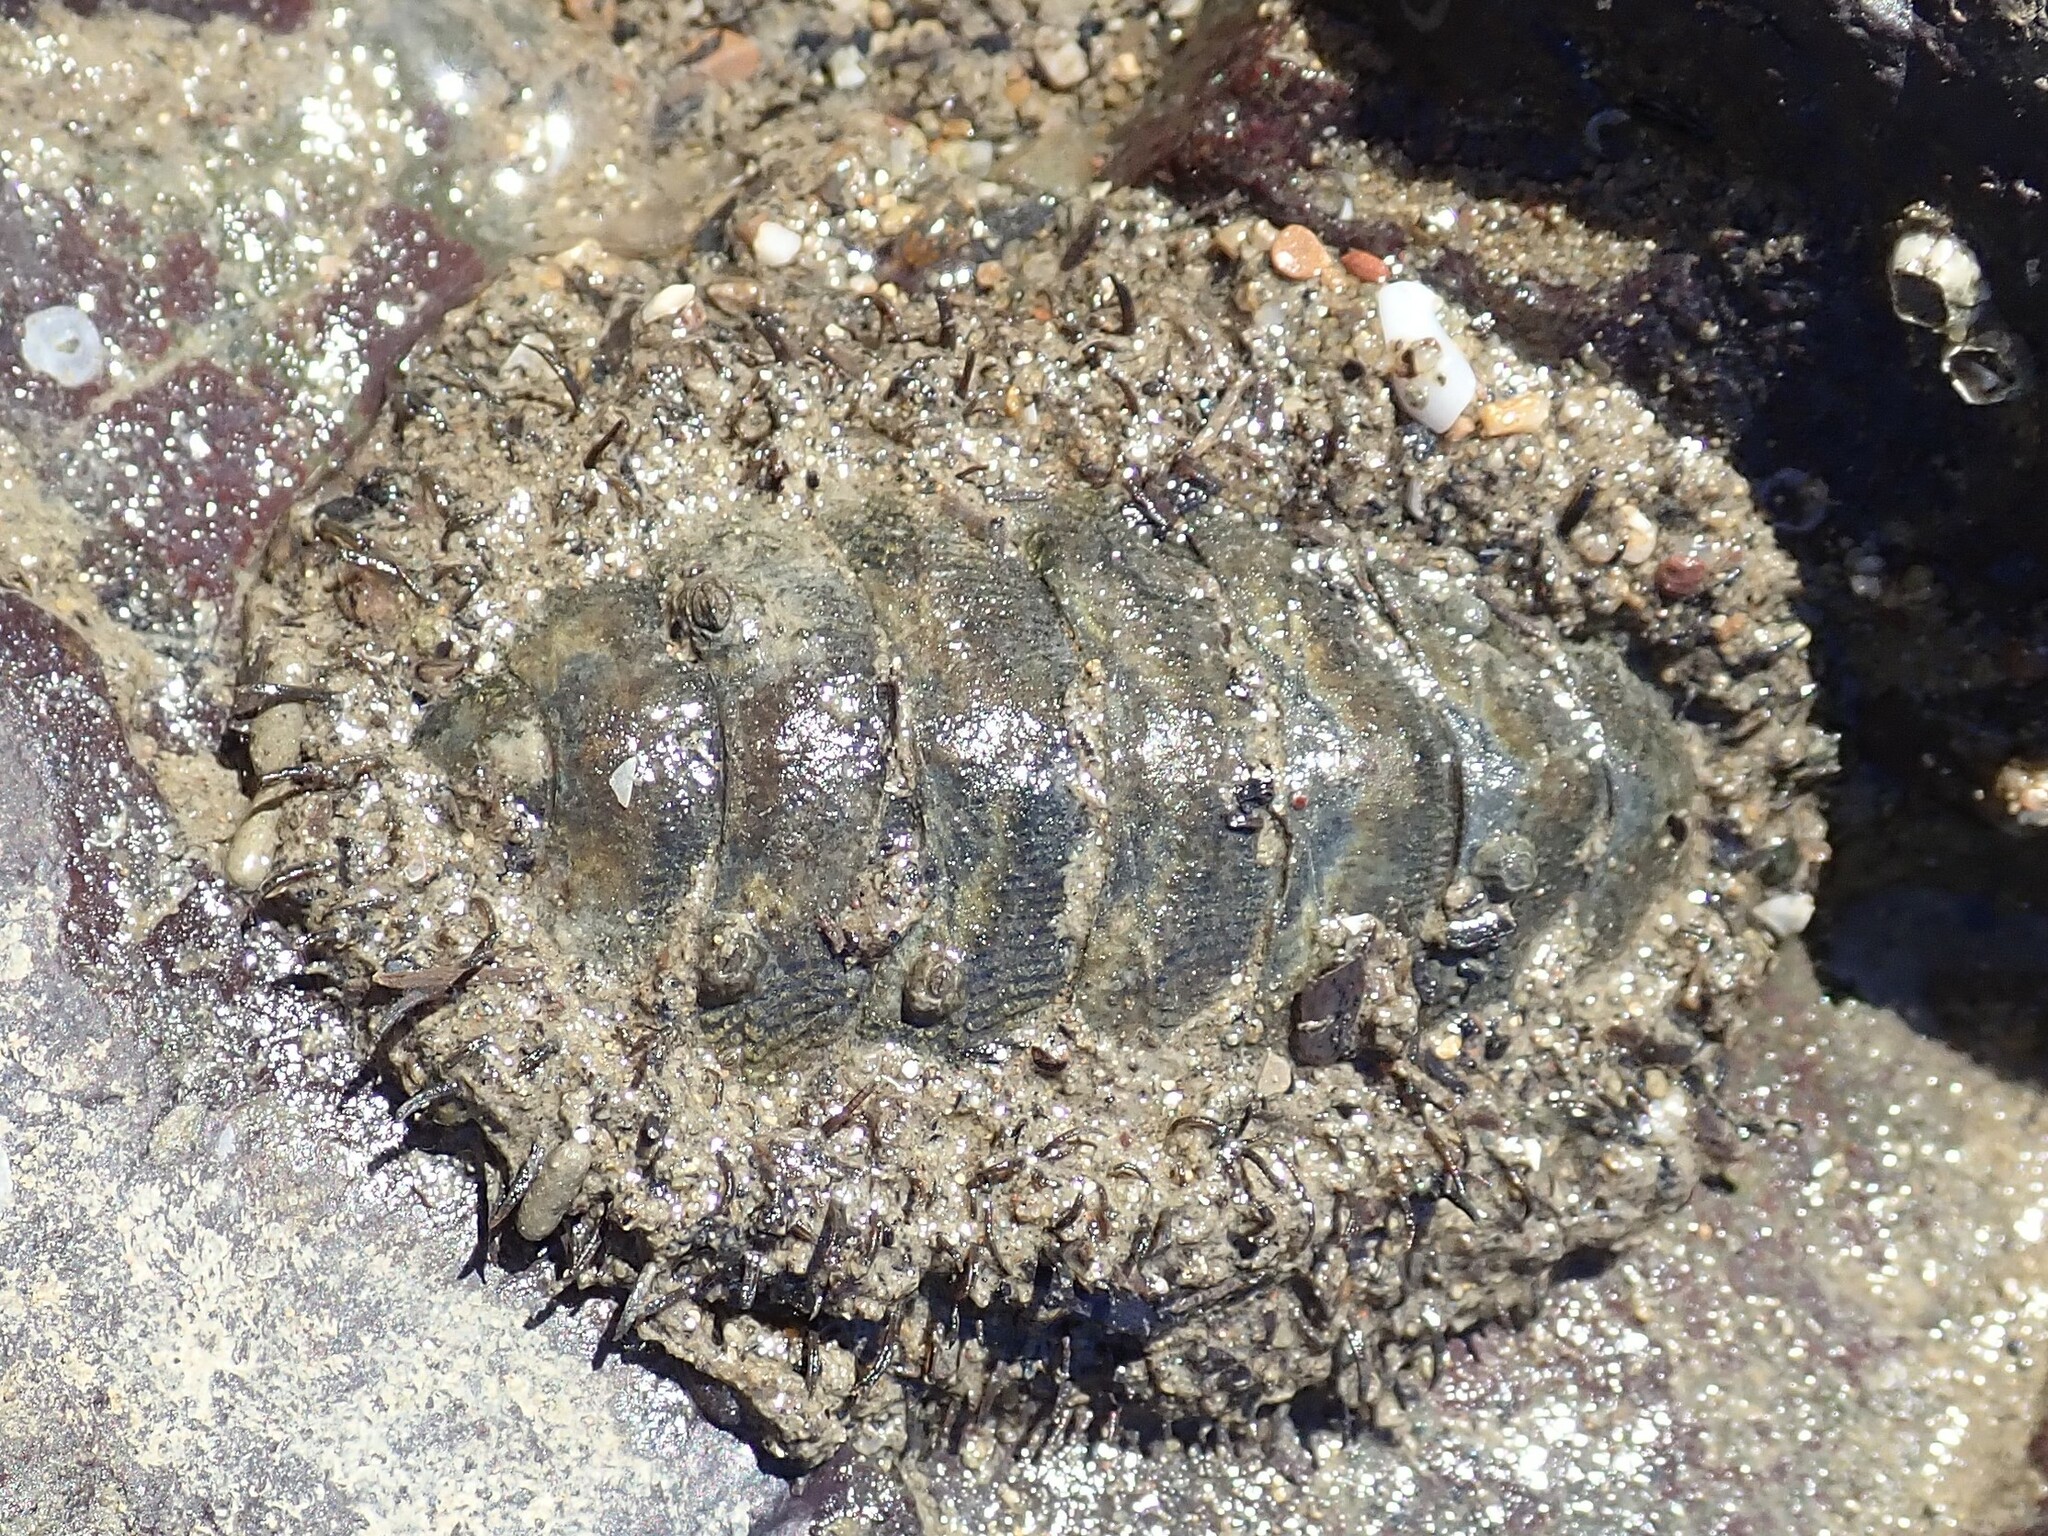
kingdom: Animalia
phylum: Mollusca
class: Polyplacophora
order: Chitonida
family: Mopaliidae
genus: Mopalia
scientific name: Mopalia muscosa
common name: Mossy chiton
